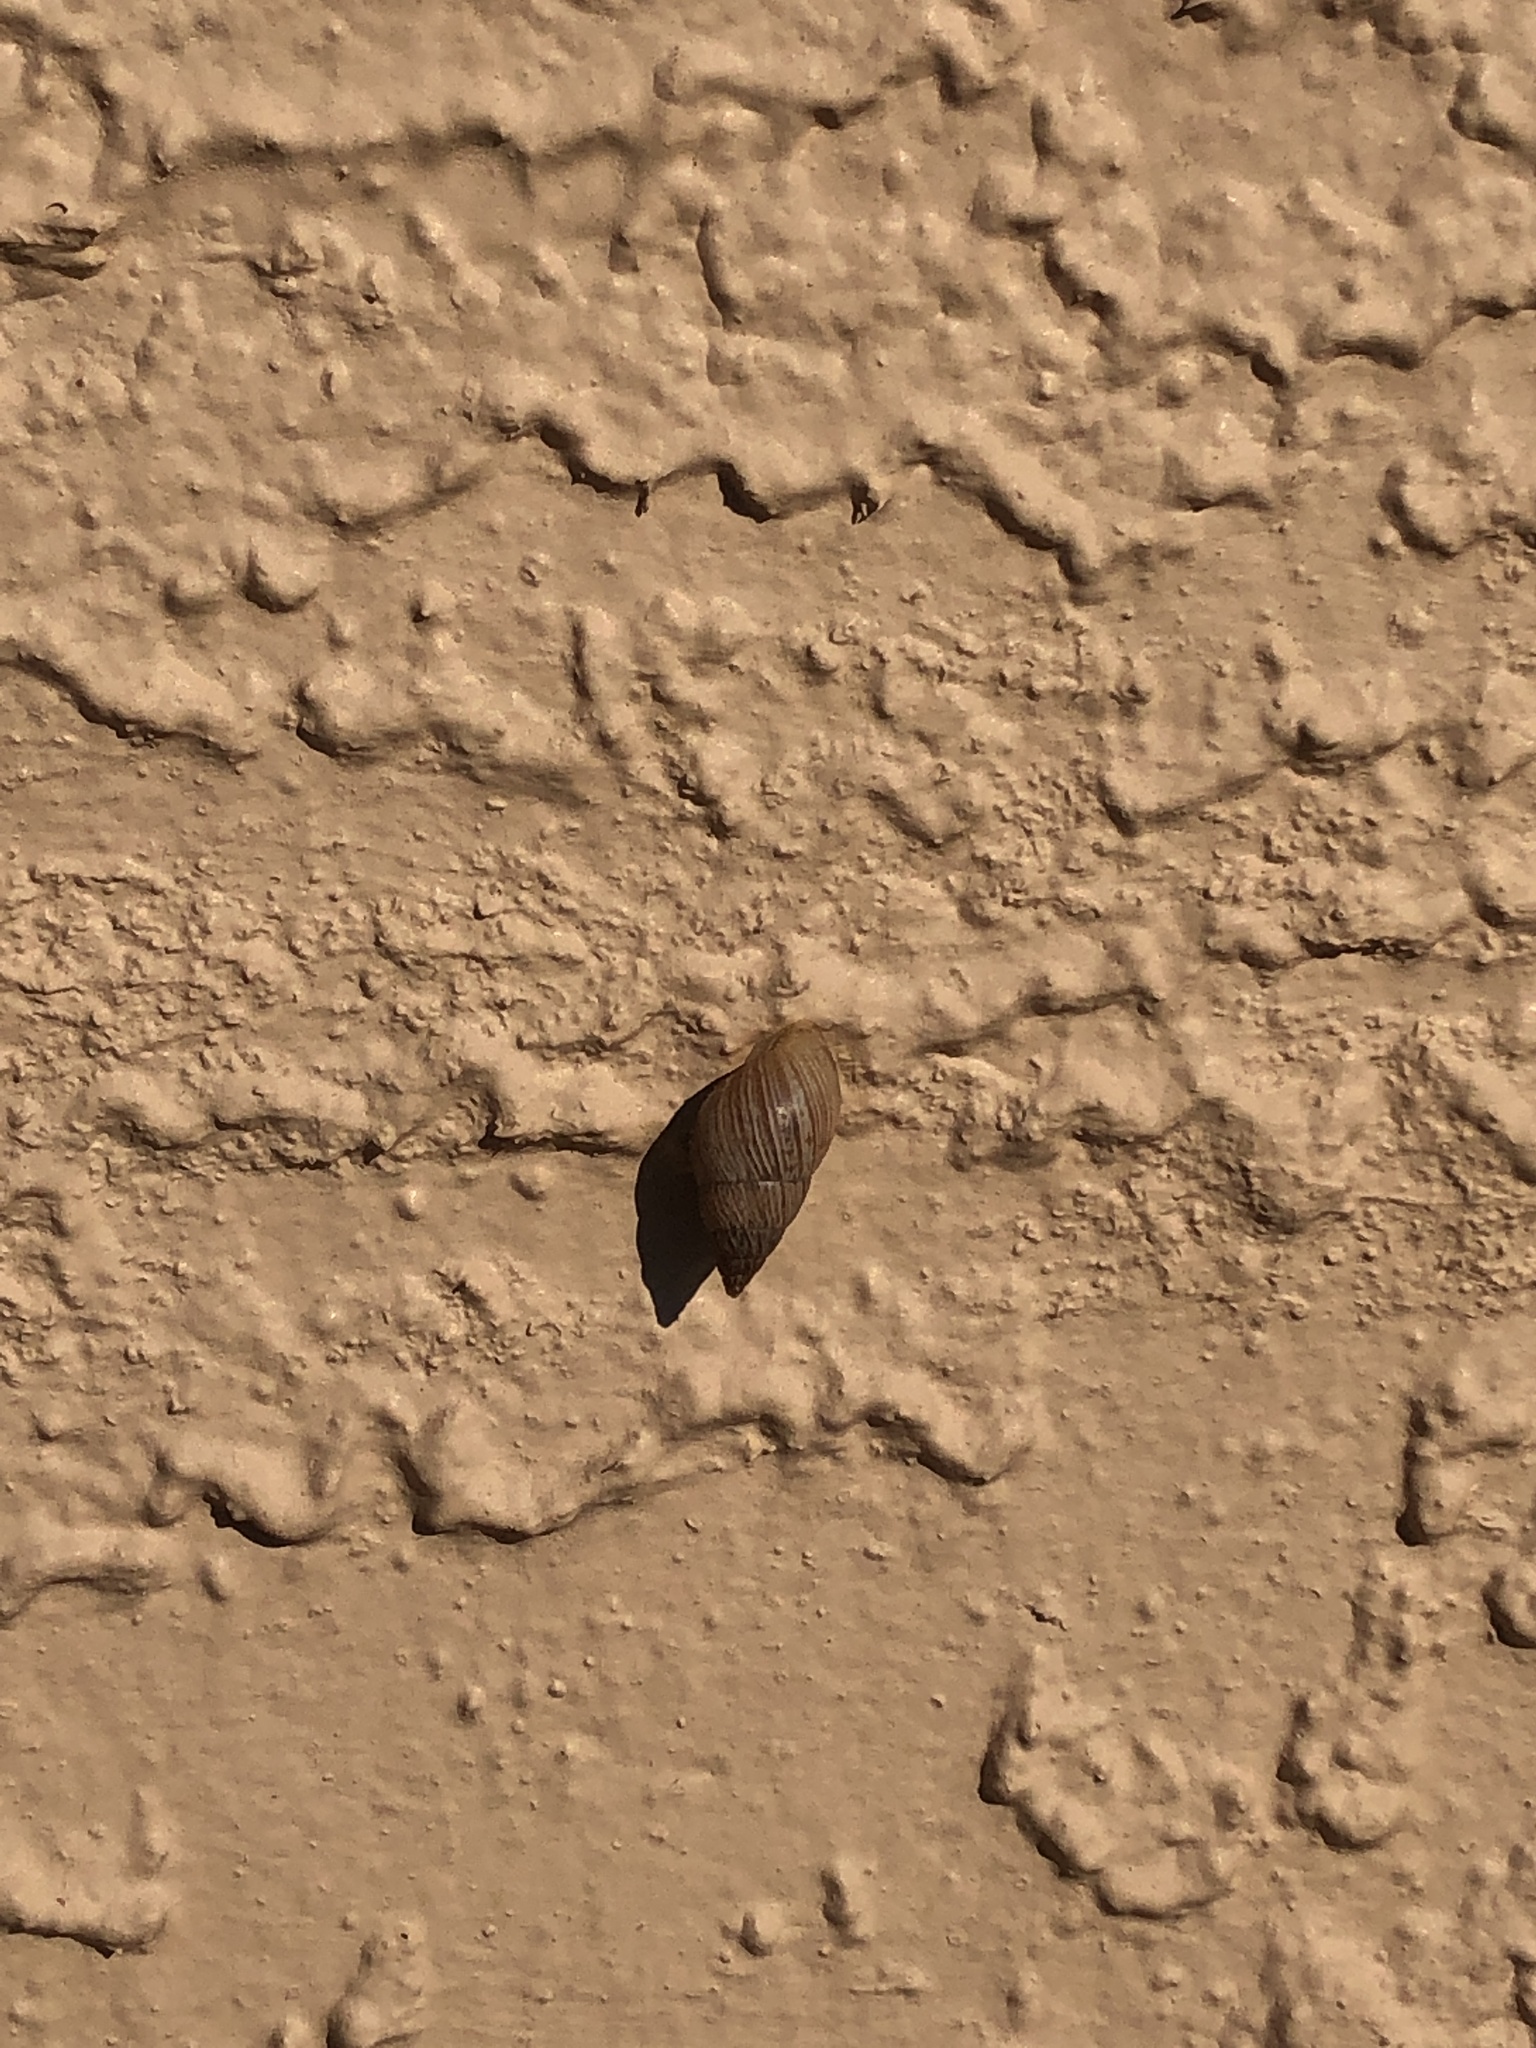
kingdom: Animalia
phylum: Mollusca
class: Gastropoda
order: Stylommatophora
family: Bulimulidae
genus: Bulimulus
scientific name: Bulimulus bonariensis
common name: Snail
